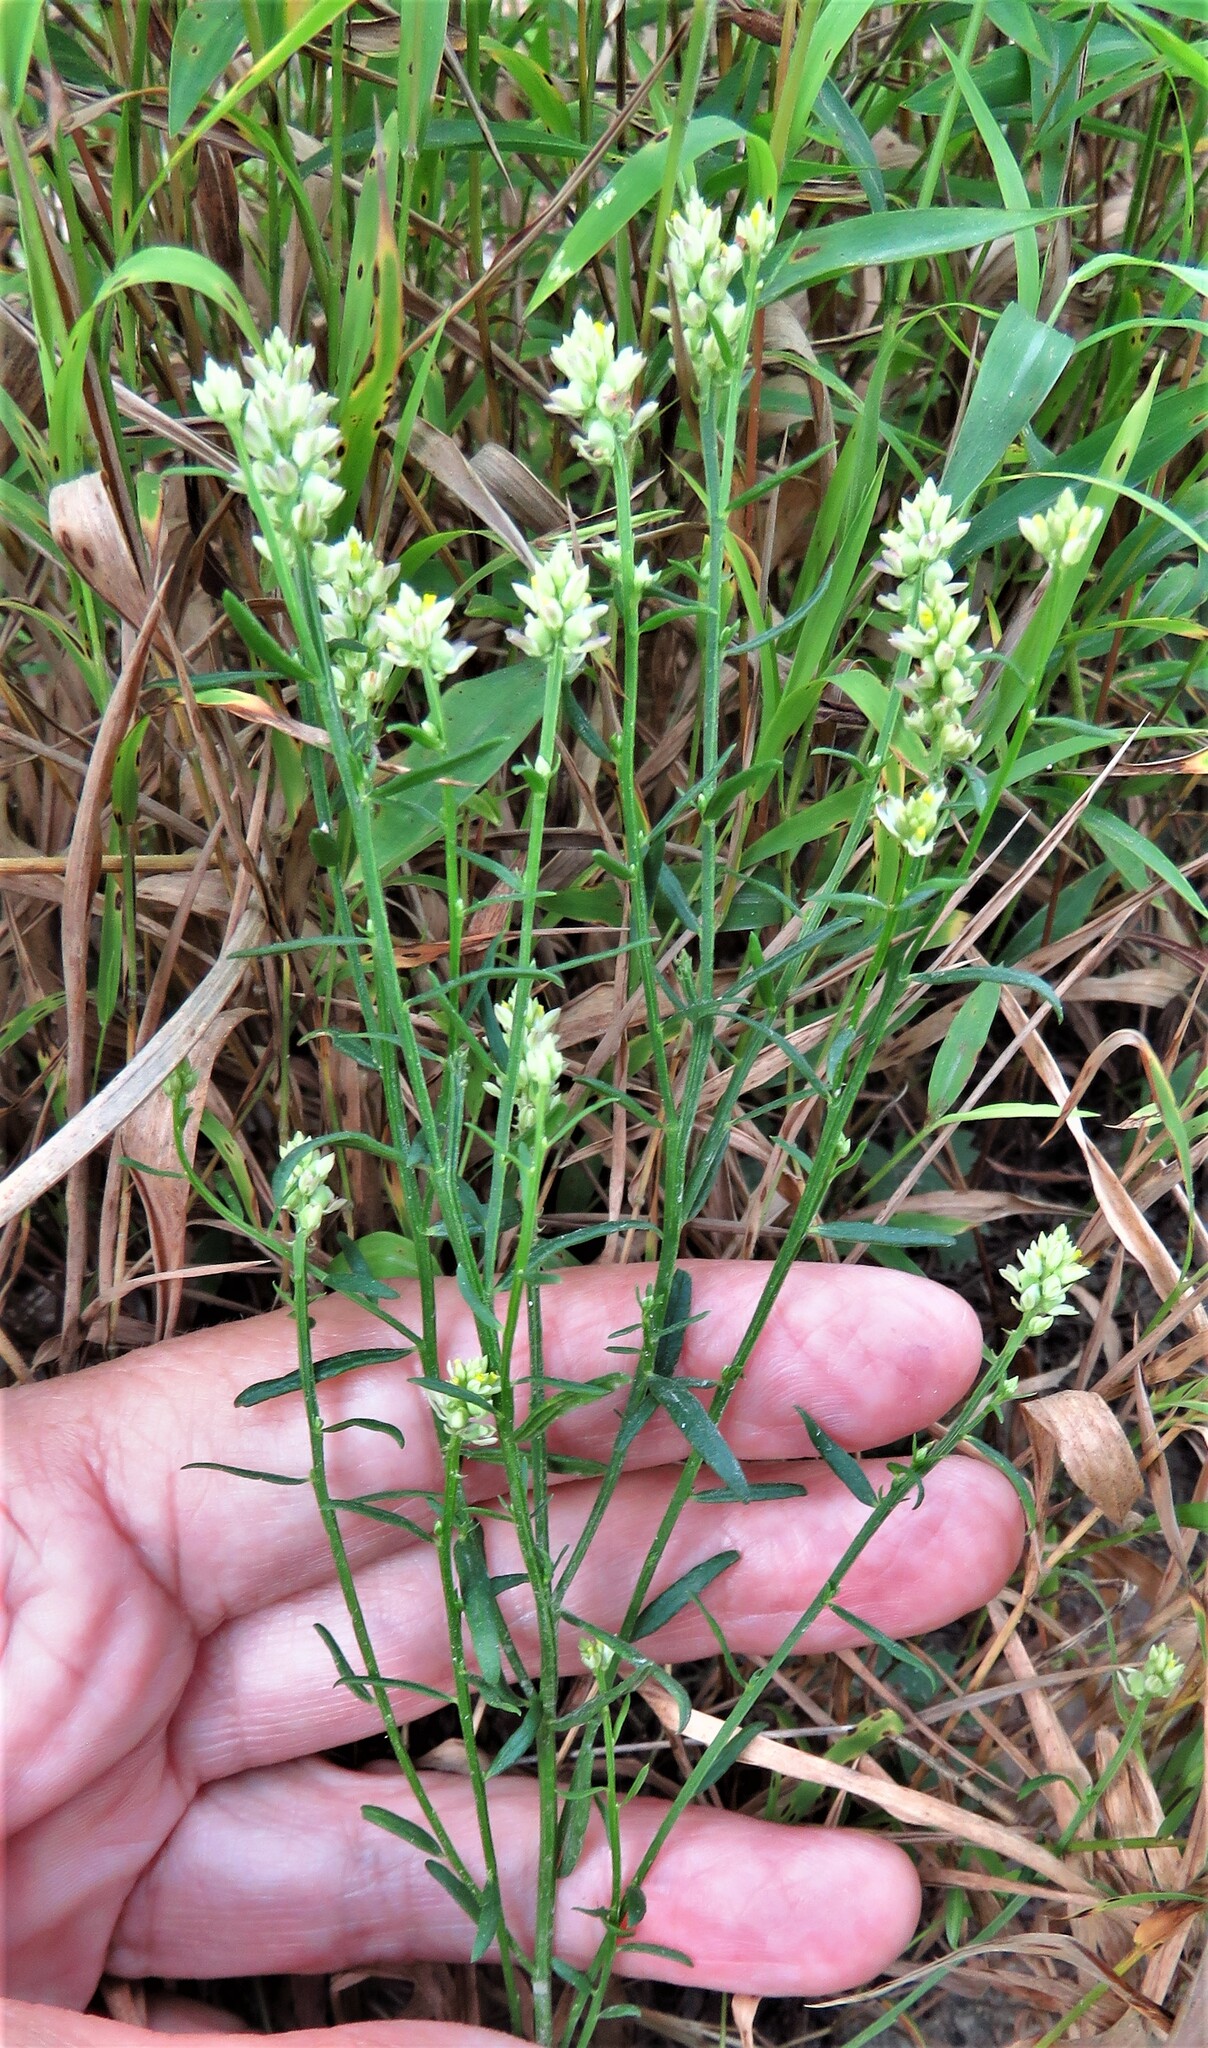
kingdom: Plantae
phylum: Tracheophyta
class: Magnoliopsida
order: Fabales
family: Polygalaceae
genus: Polygala
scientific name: Polygala nuttallii
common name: Nuttall's milkwort
